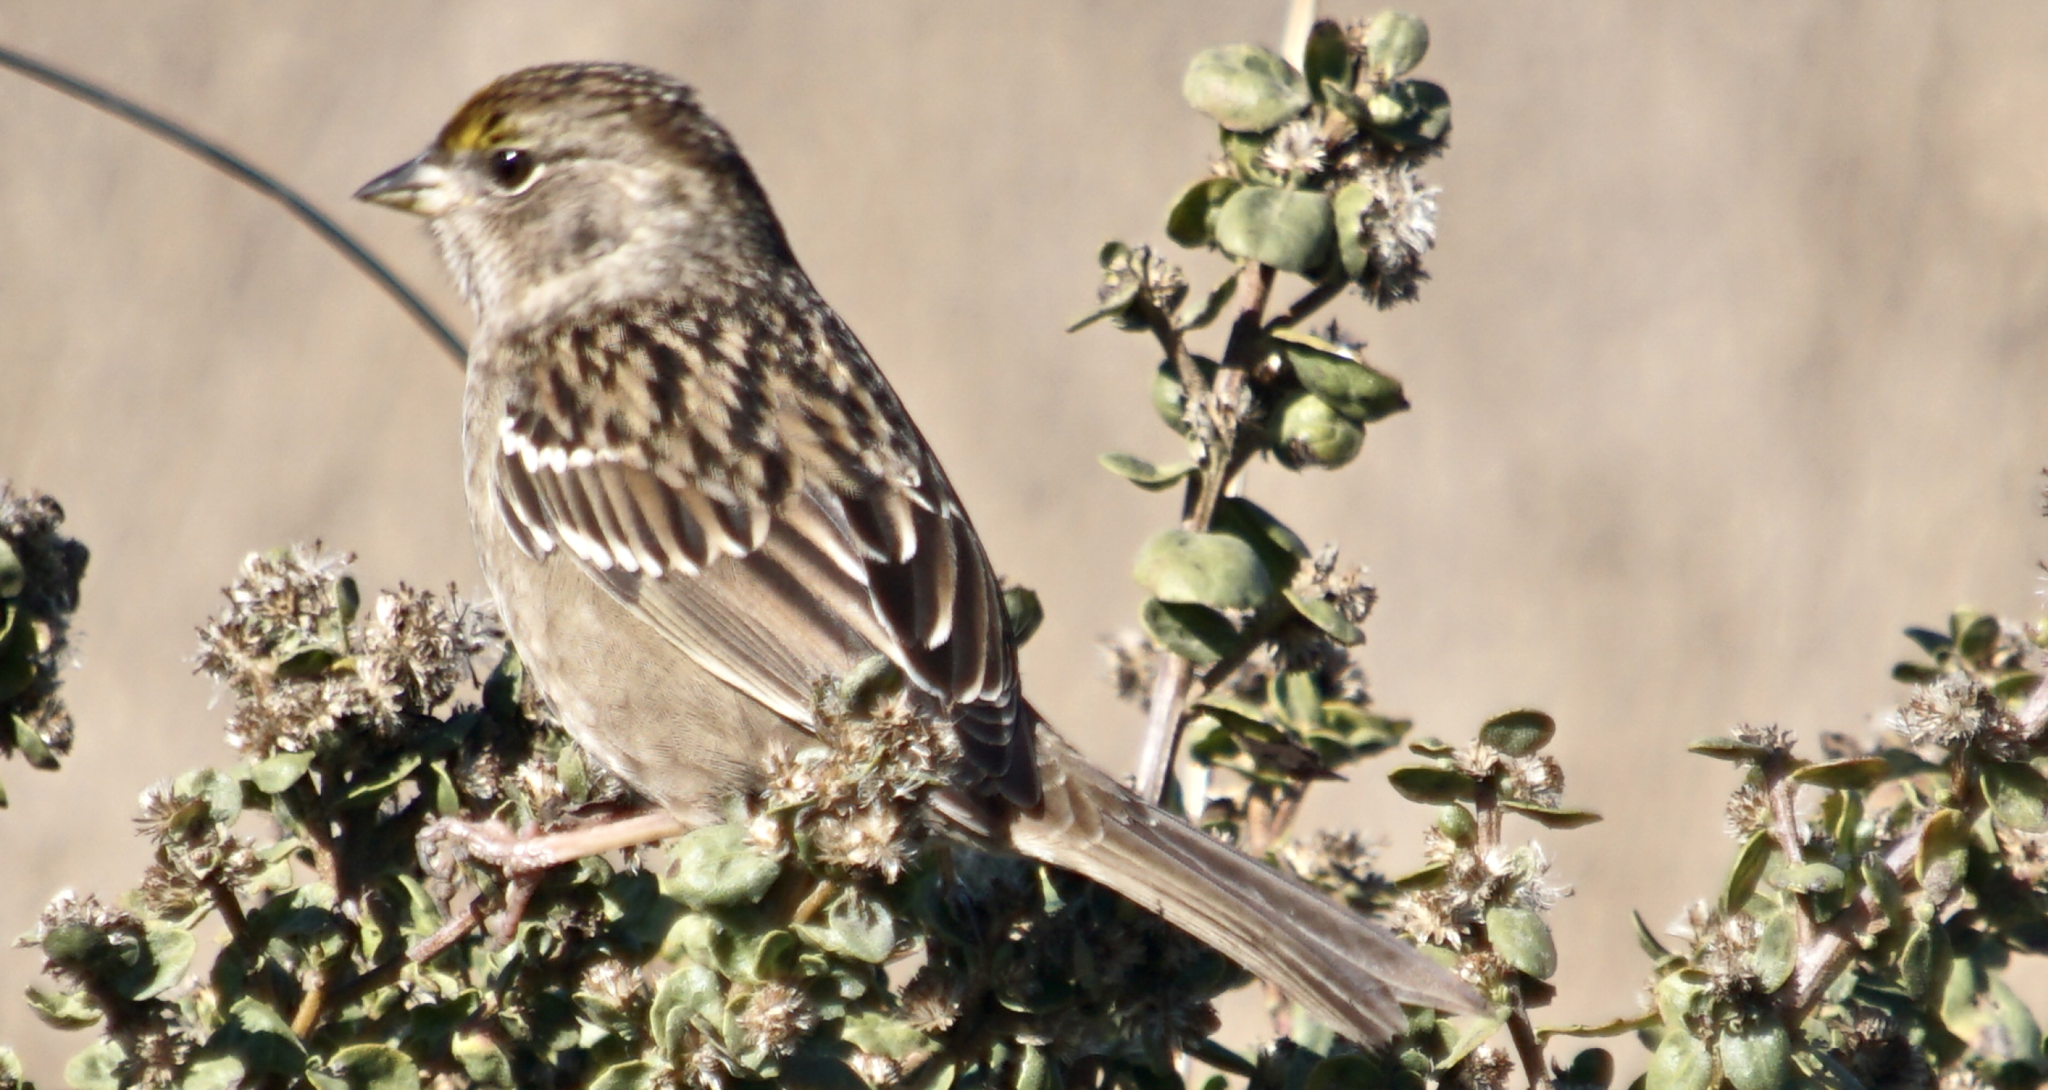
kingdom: Animalia
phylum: Chordata
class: Aves
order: Passeriformes
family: Passerellidae
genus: Zonotrichia
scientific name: Zonotrichia atricapilla
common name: Golden-crowned sparrow
